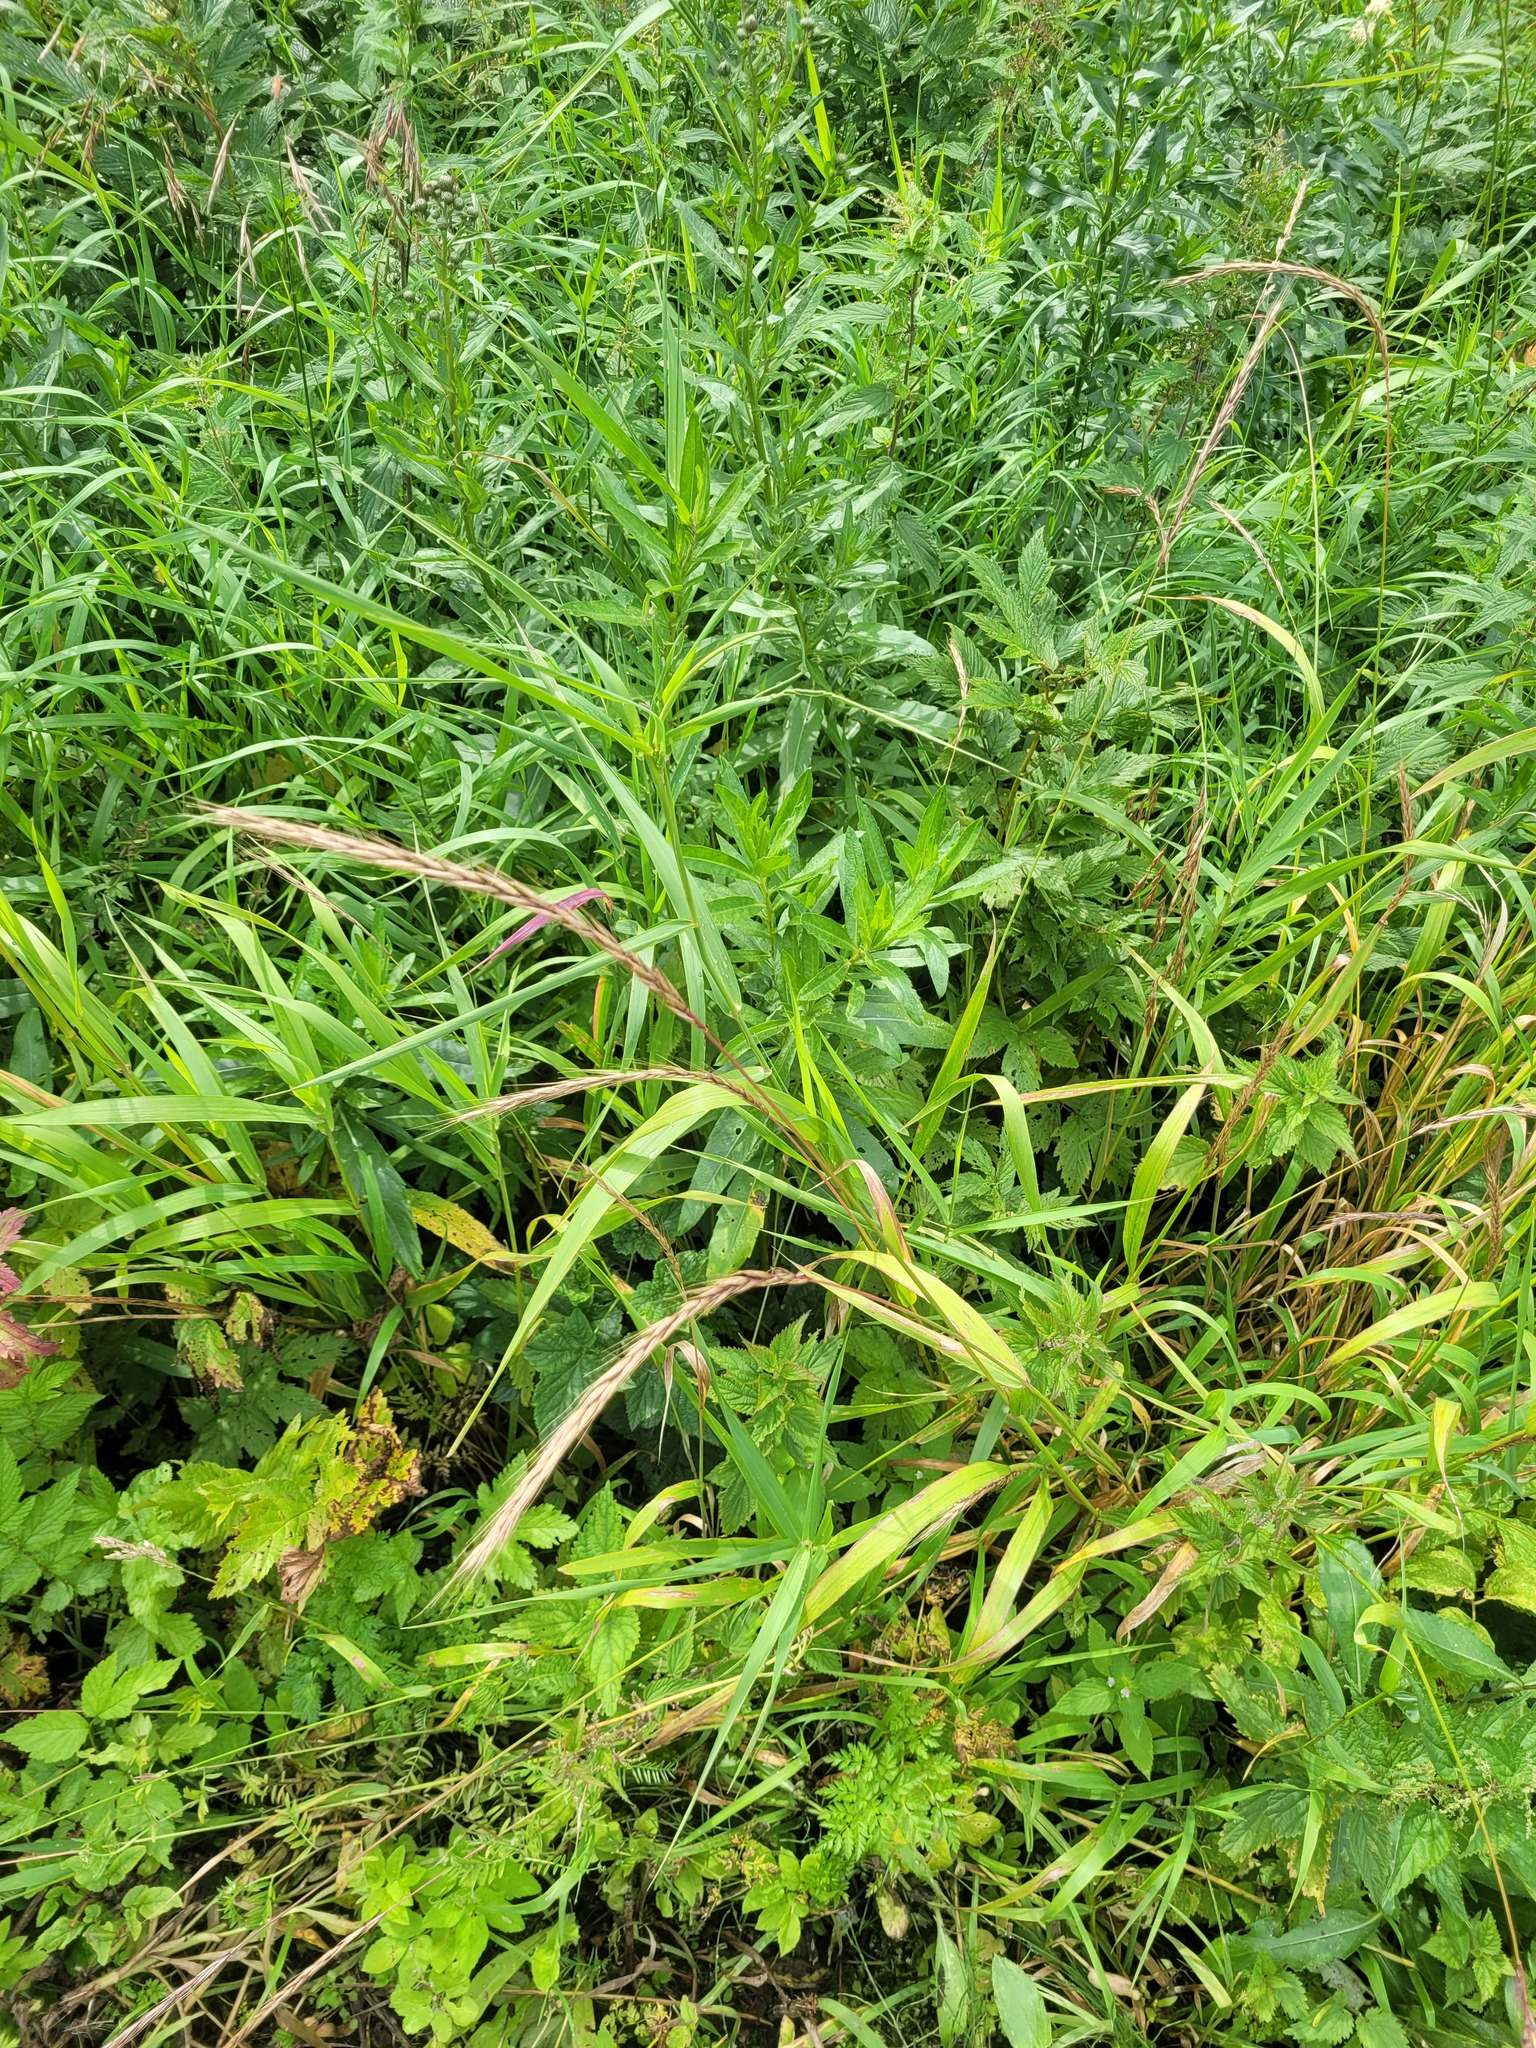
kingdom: Plantae
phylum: Tracheophyta
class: Liliopsida
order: Poales
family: Poaceae
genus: Elymus
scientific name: Elymus caninus
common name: Bearded couch
